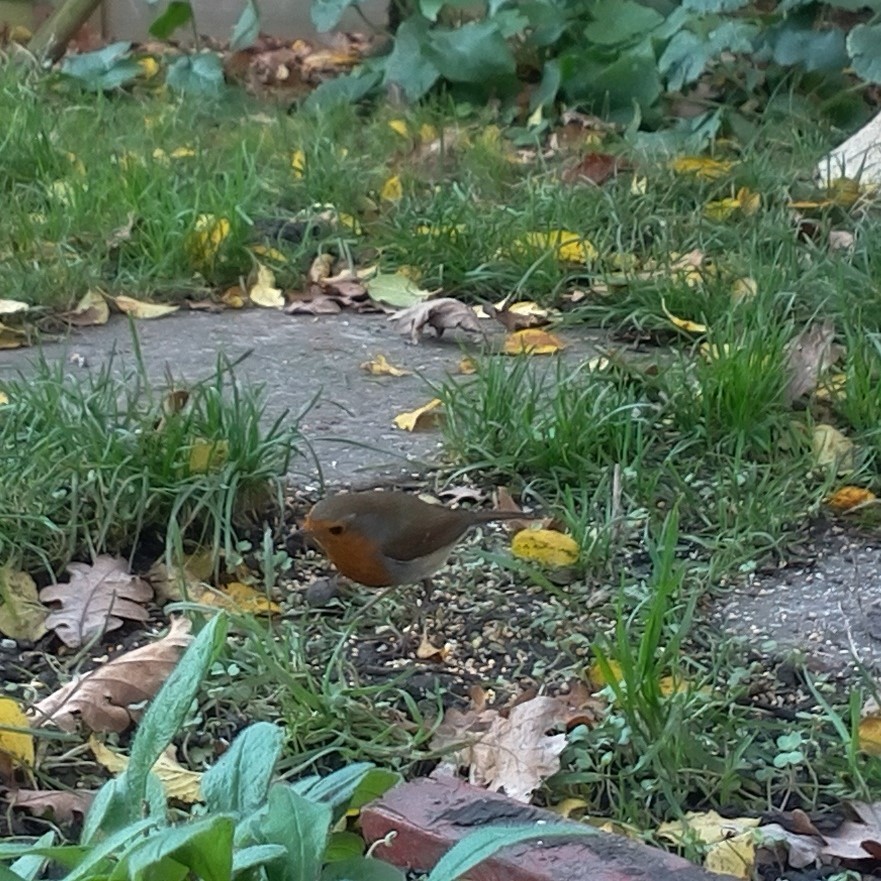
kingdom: Animalia
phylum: Chordata
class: Aves
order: Passeriformes
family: Muscicapidae
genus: Erithacus
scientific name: Erithacus rubecula
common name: European robin
